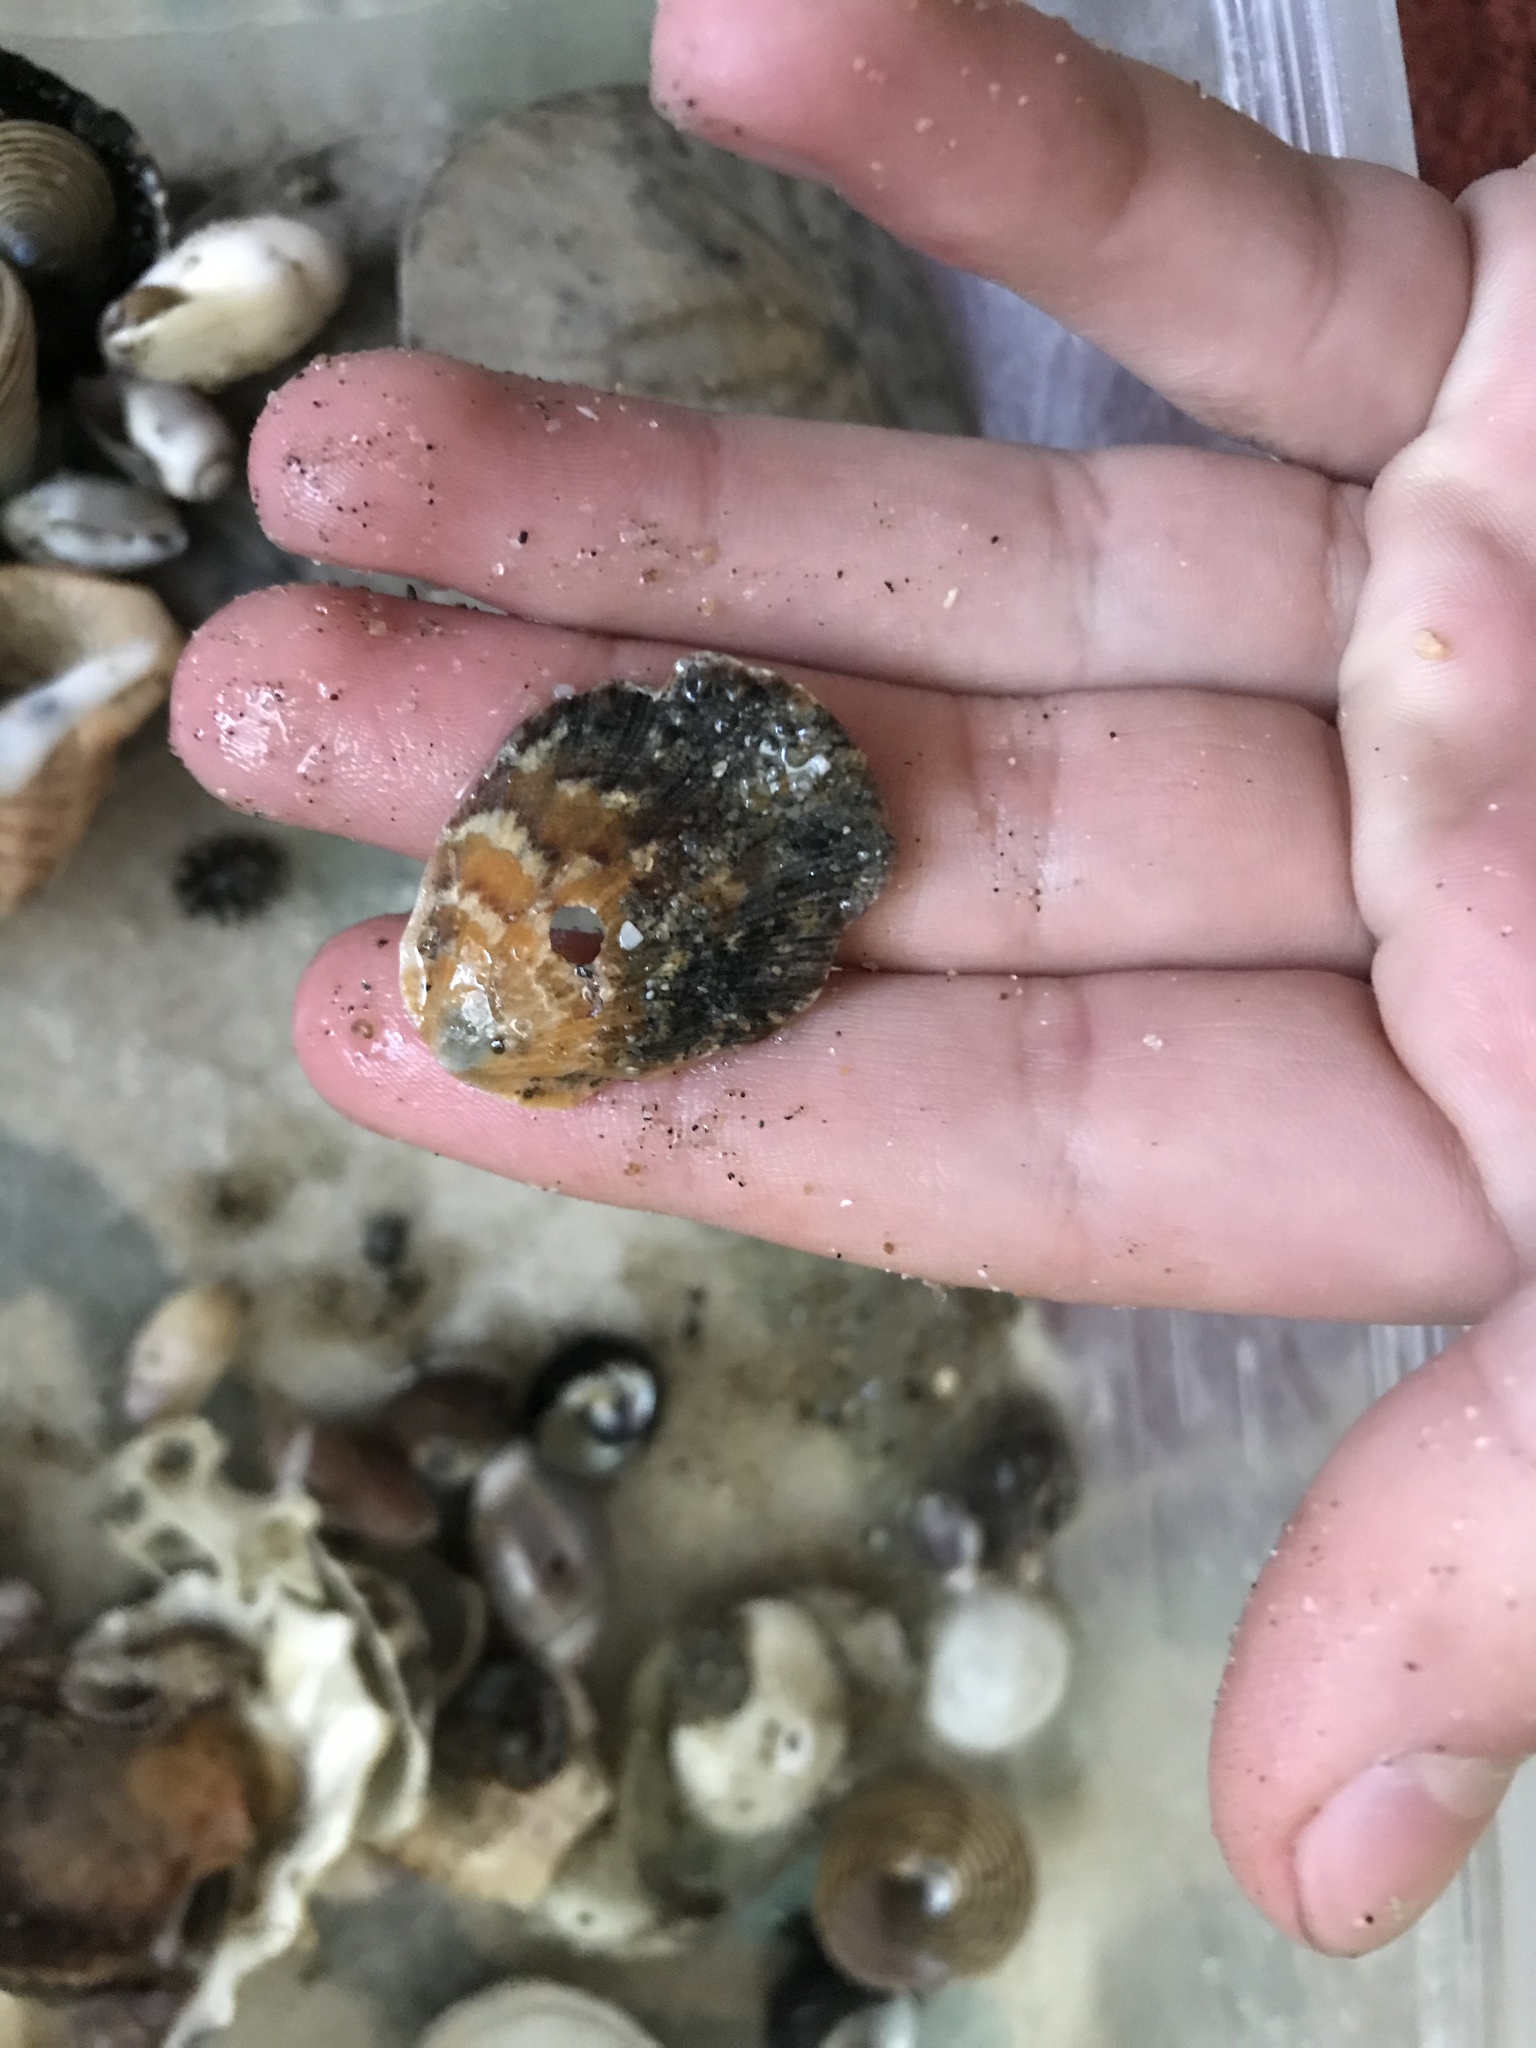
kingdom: Animalia
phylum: Mollusca
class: Bivalvia
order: Pectinida
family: Pectinidae
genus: Crassadoma
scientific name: Crassadoma gigantea
